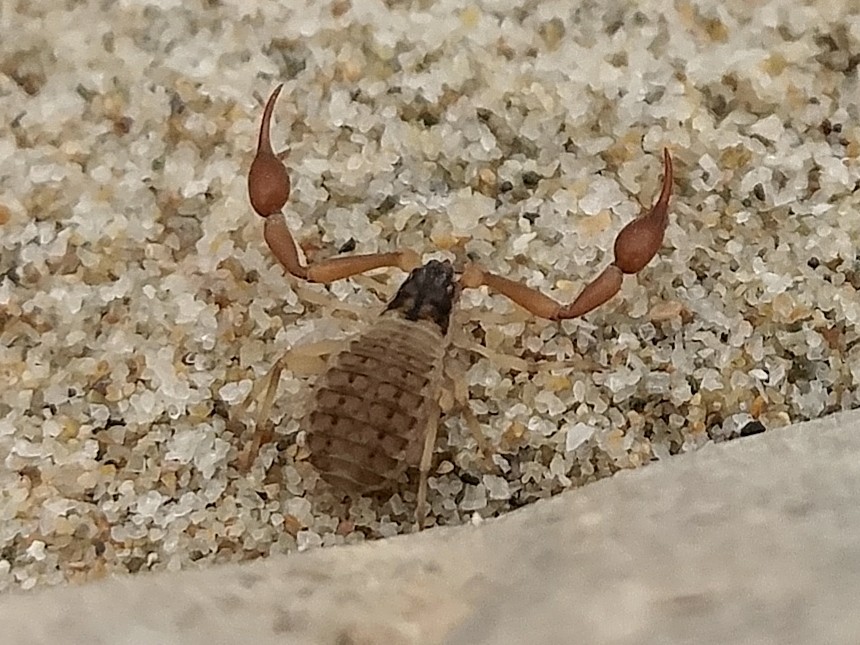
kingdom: Animalia
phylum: Arthropoda
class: Arachnida
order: Pseudoscorpiones
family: Garypidae
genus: Anchigarypus
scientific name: Anchigarypus californicus
